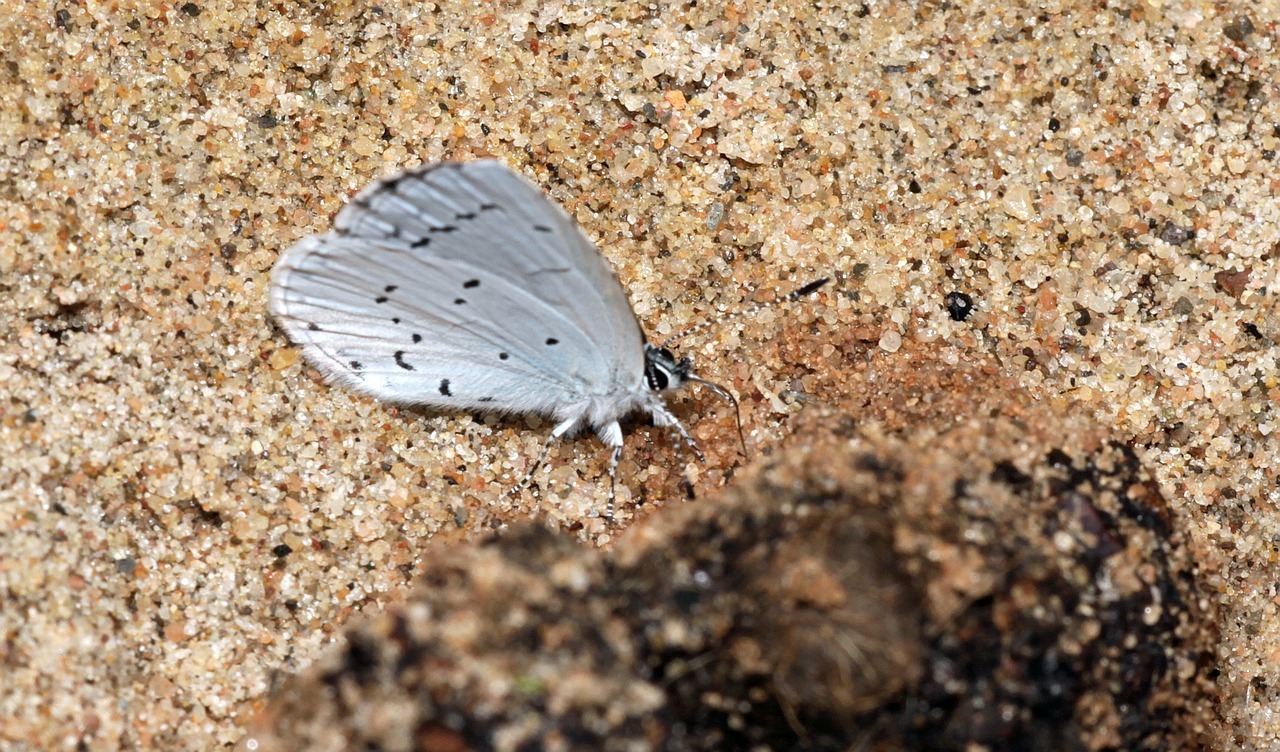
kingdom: Animalia
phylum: Arthropoda
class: Insecta
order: Lepidoptera
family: Lycaenidae
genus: Celastrina
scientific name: Celastrina argiolus
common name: Holly blue
